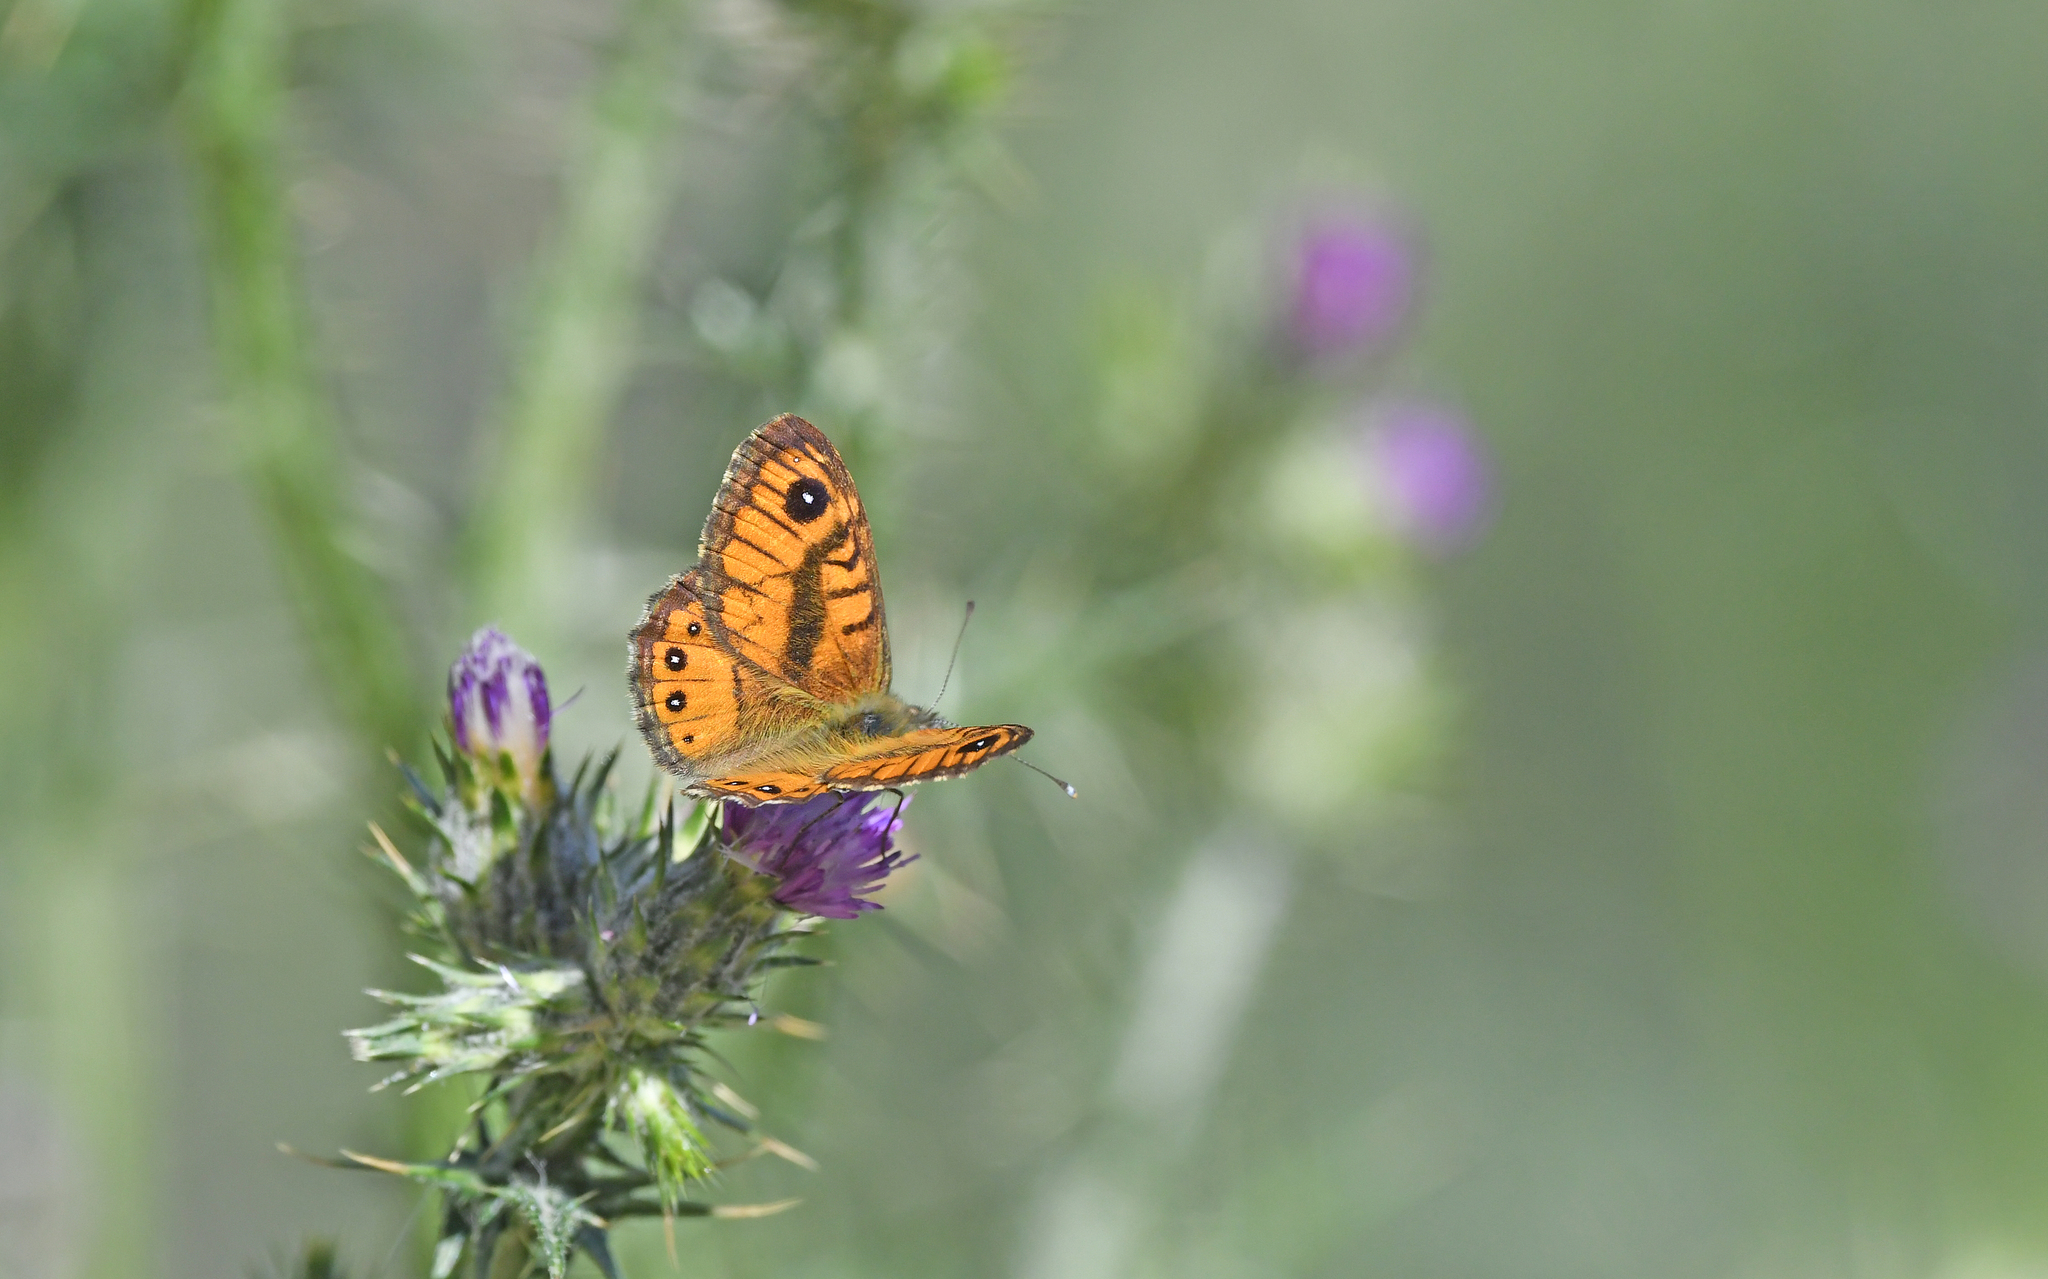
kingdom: Animalia
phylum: Arthropoda
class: Insecta
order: Lepidoptera
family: Nymphalidae
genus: Pararge
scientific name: Pararge Lasiommata paramegaera
